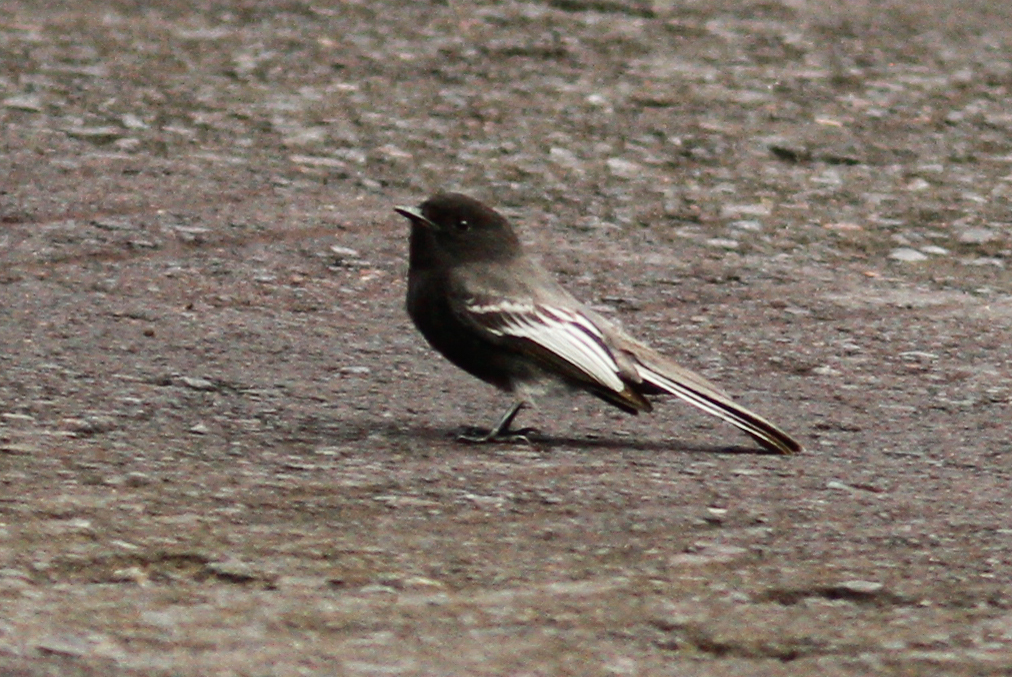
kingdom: Animalia
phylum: Chordata
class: Aves
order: Passeriformes
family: Tyrannidae
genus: Sayornis
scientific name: Sayornis nigricans
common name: Black phoebe
